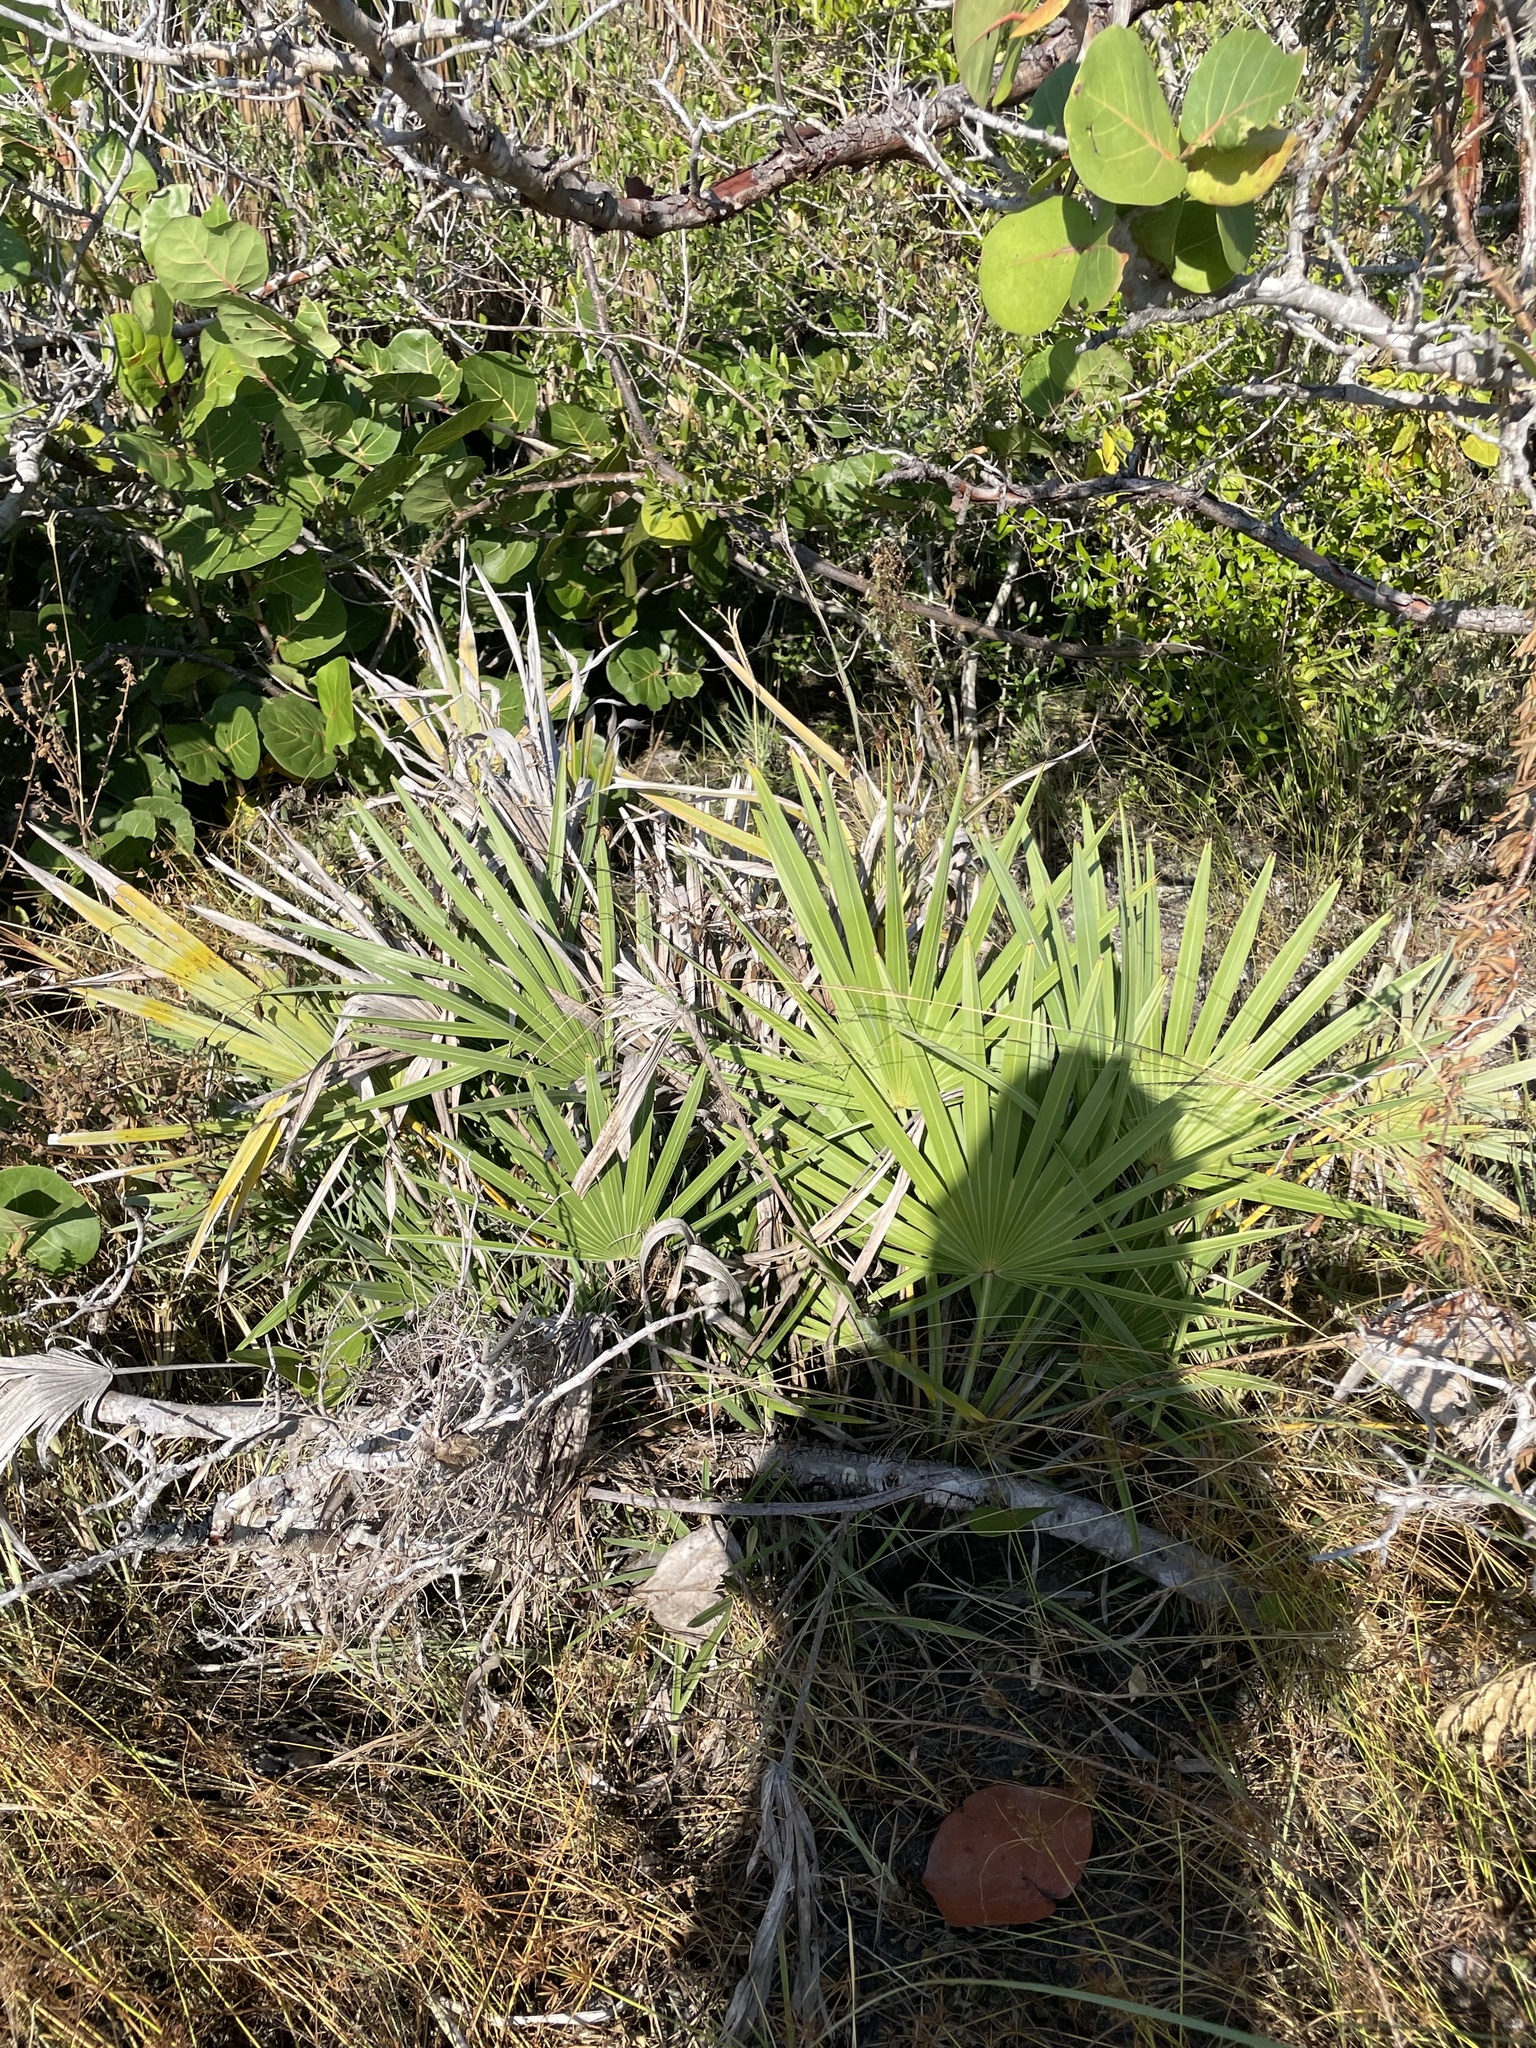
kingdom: Plantae
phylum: Tracheophyta
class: Liliopsida
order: Arecales
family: Arecaceae
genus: Serenoa
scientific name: Serenoa repens
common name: Saw-palmetto
